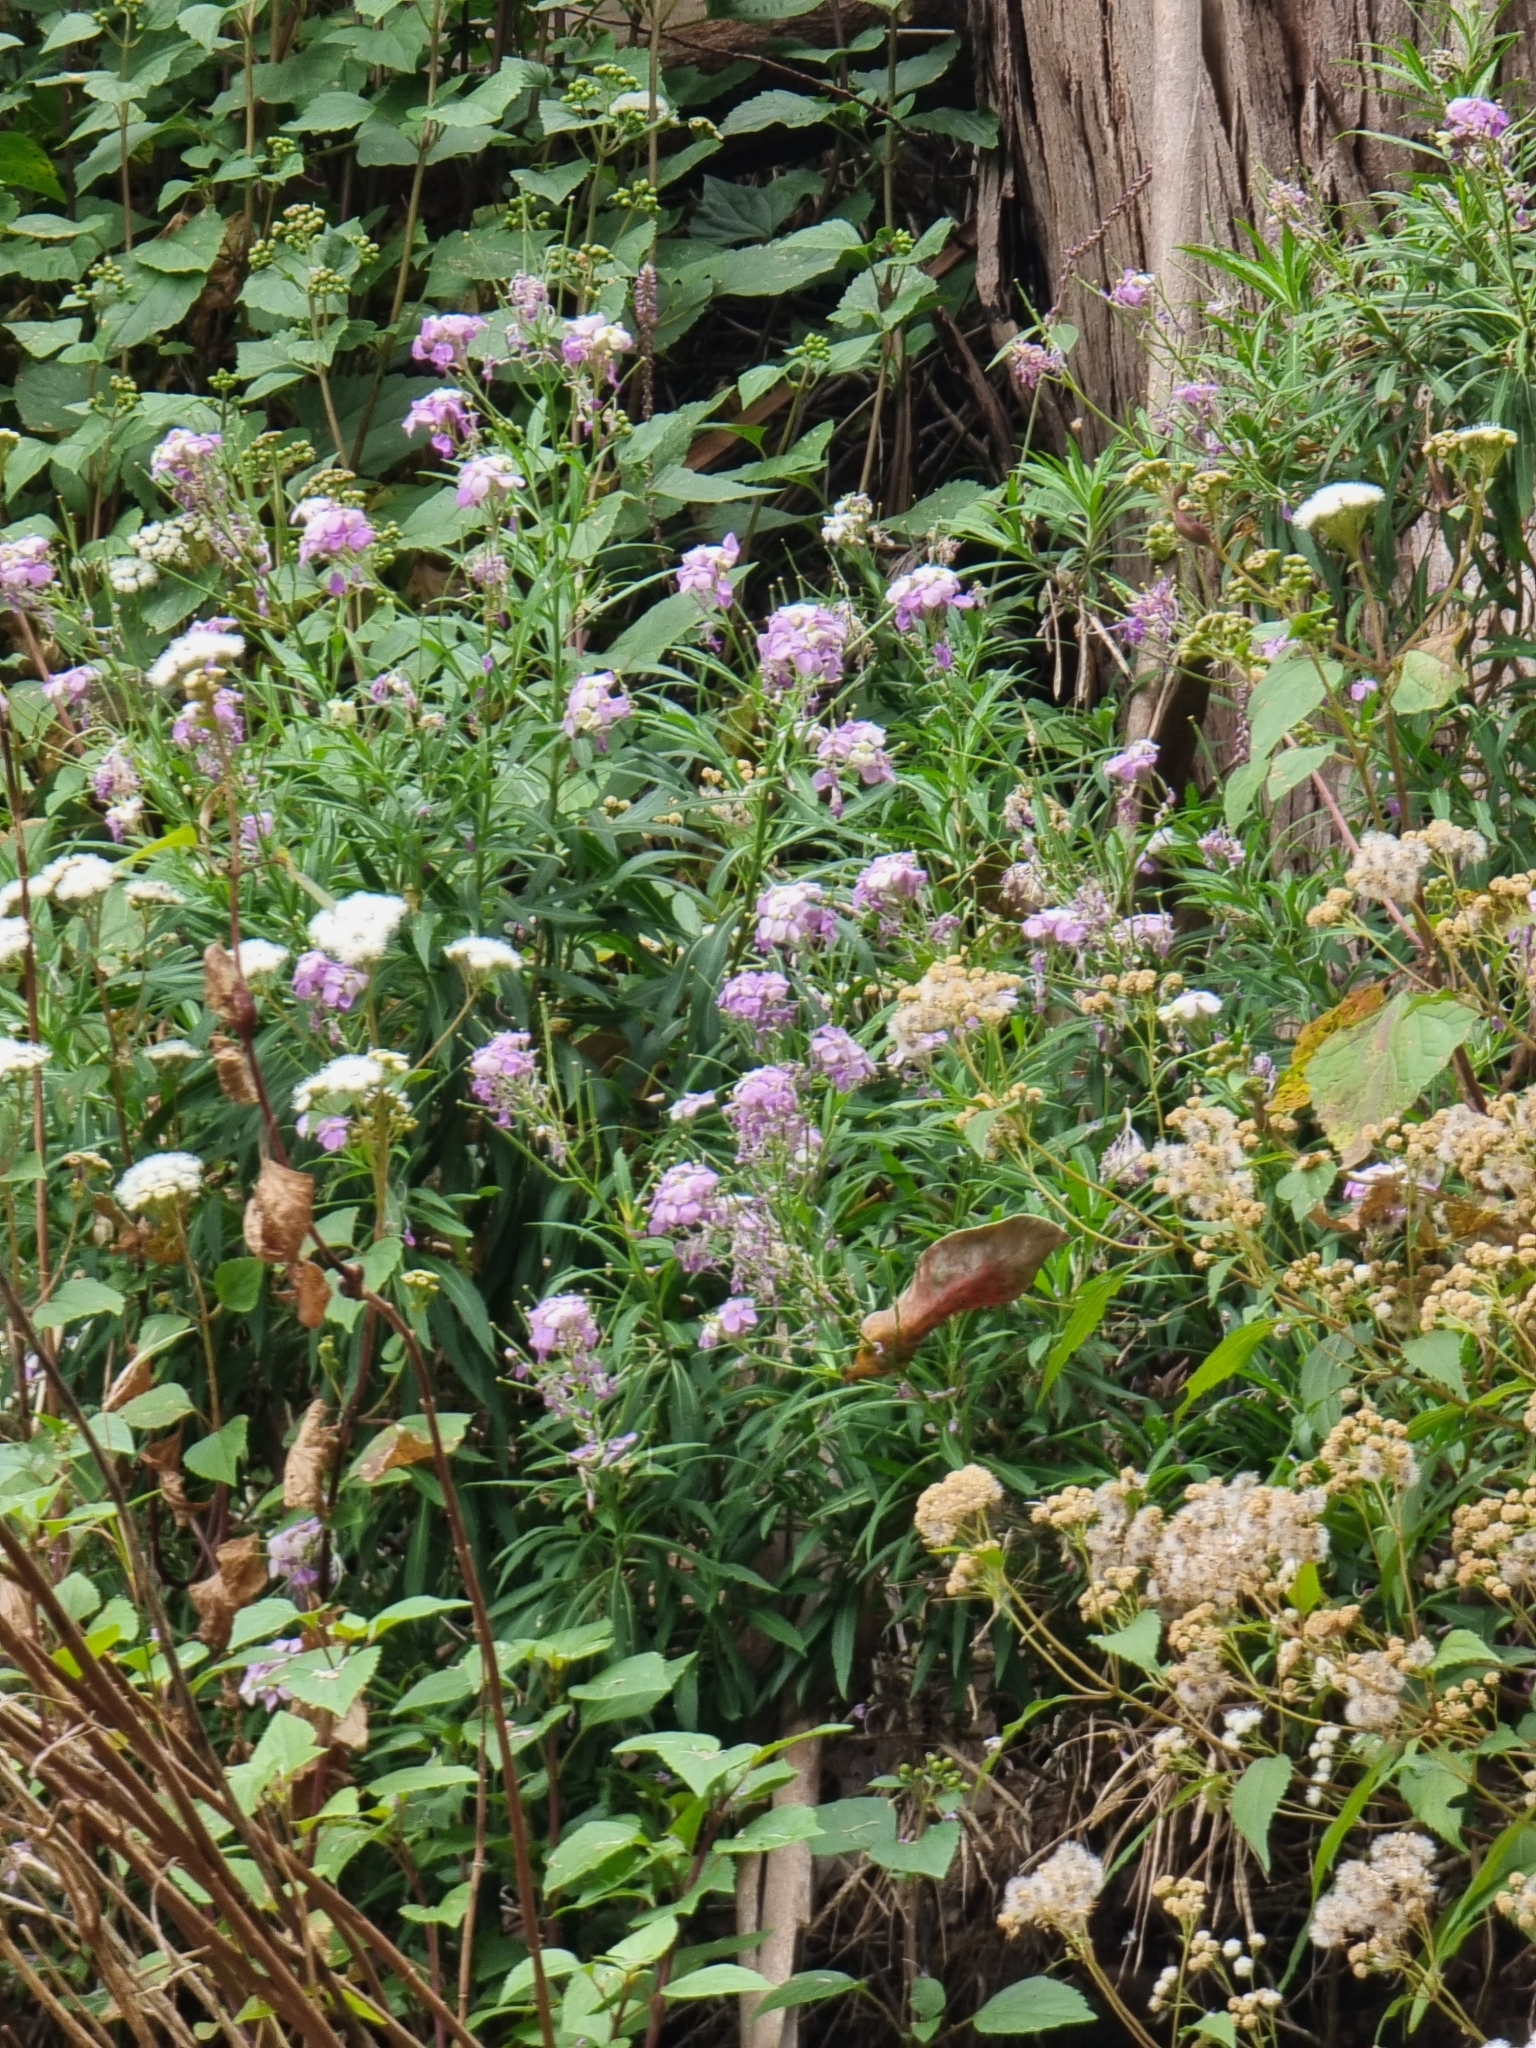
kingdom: Plantae
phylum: Tracheophyta
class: Magnoliopsida
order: Brassicales
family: Brassicaceae
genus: Erysimum
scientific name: Erysimum bicolor
